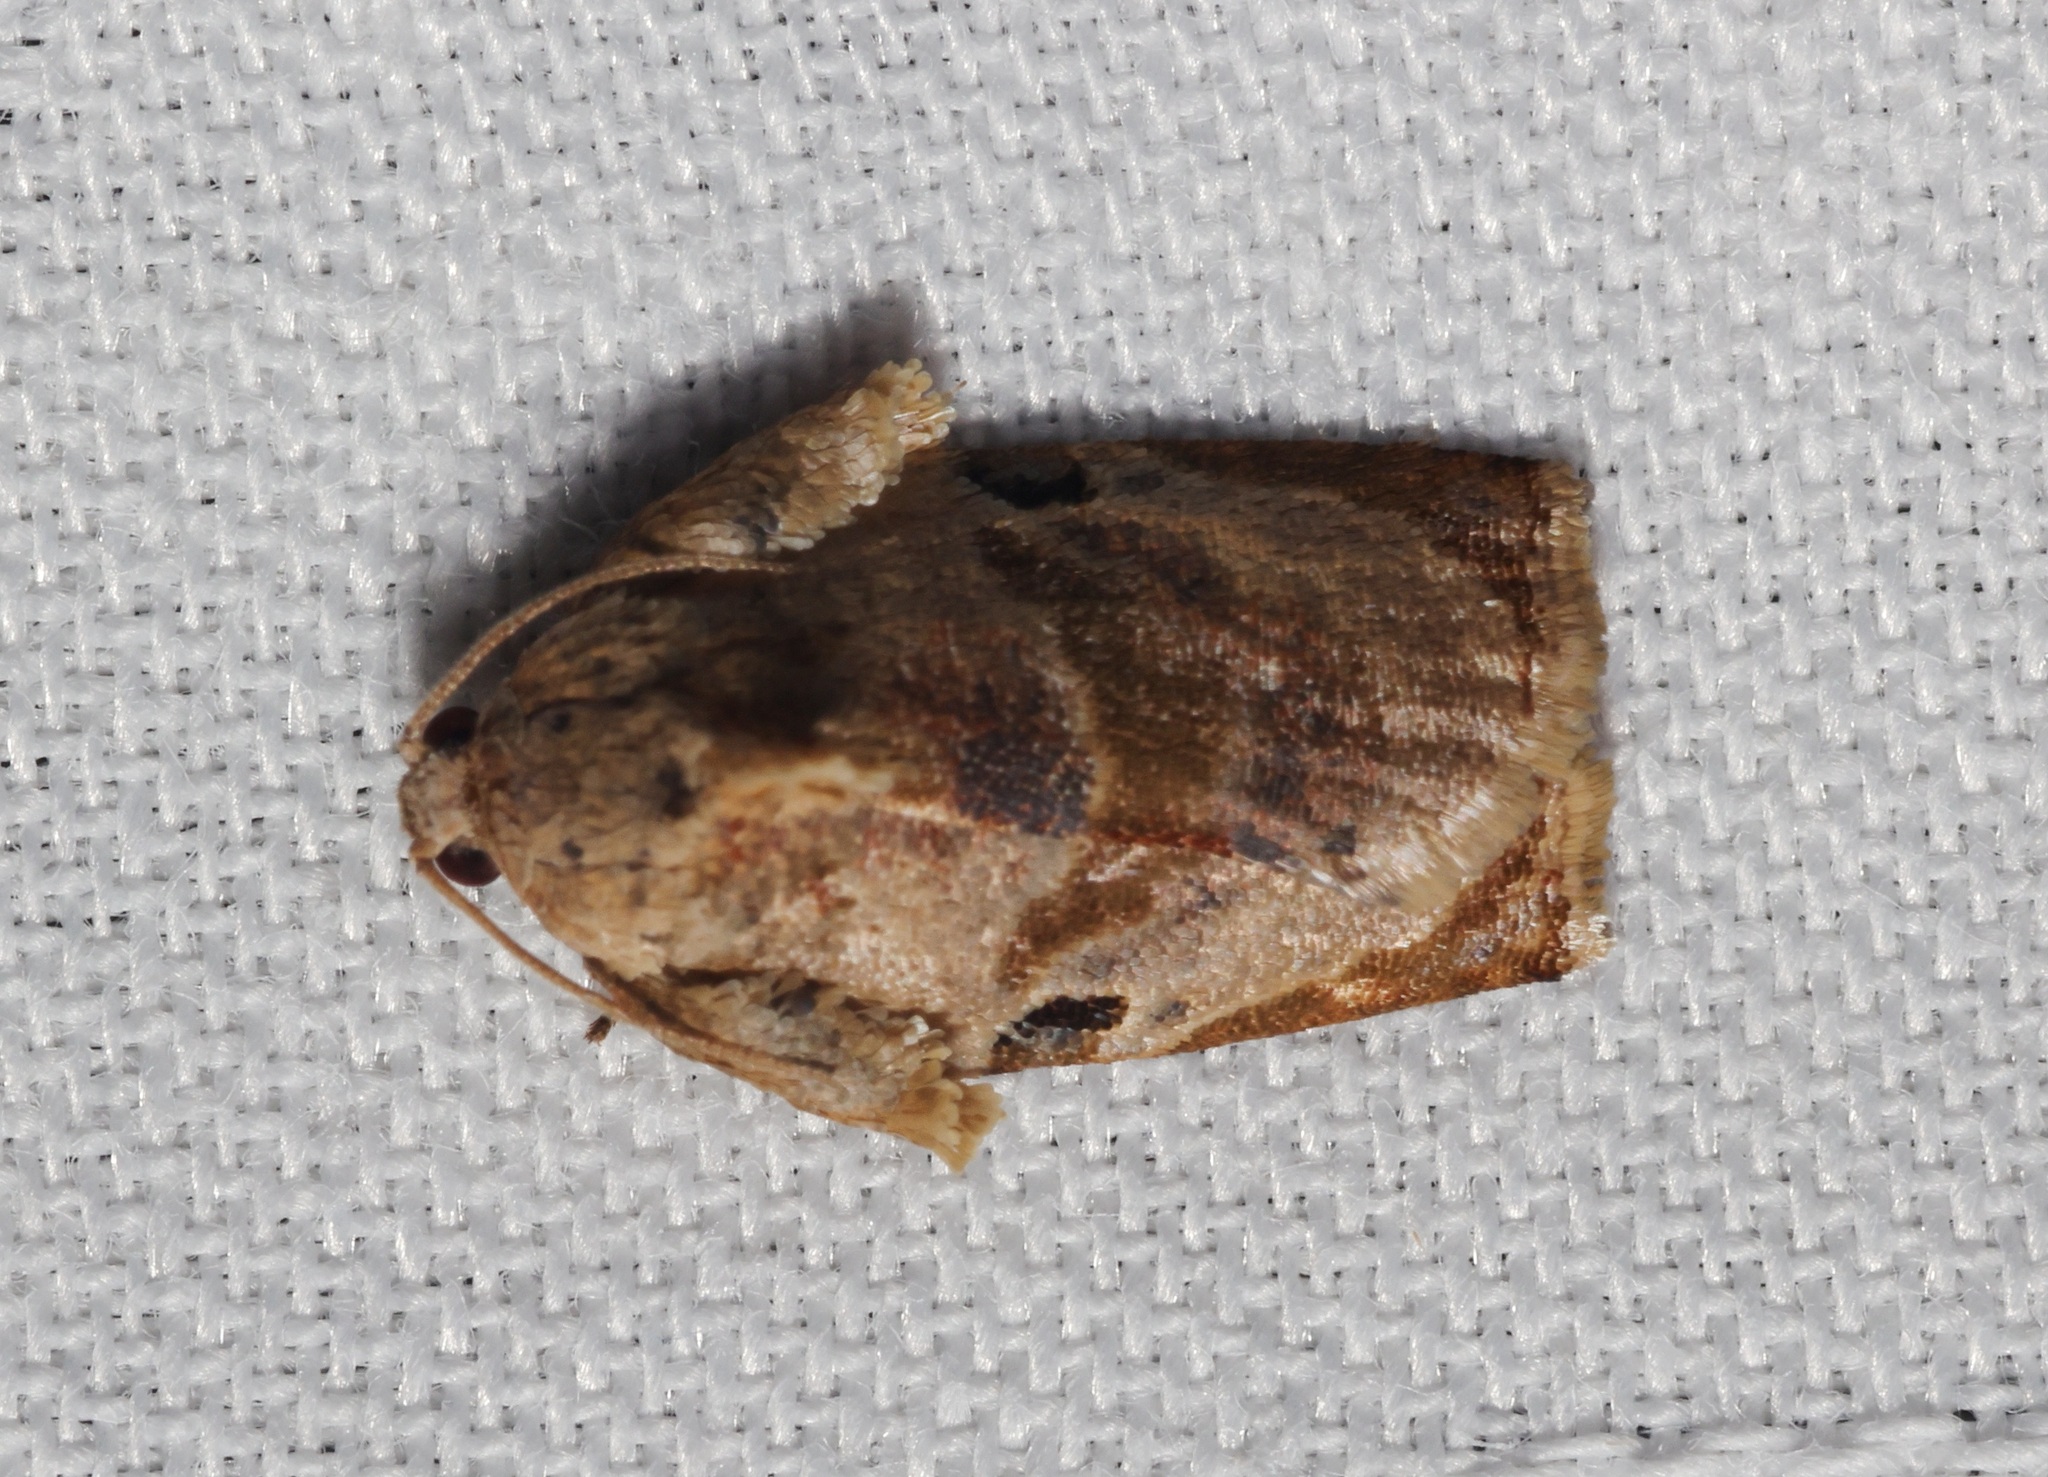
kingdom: Animalia
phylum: Arthropoda
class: Insecta
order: Lepidoptera
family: Tortricidae
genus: Homona
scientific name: Homona coffearia
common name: Camellia tortrix
